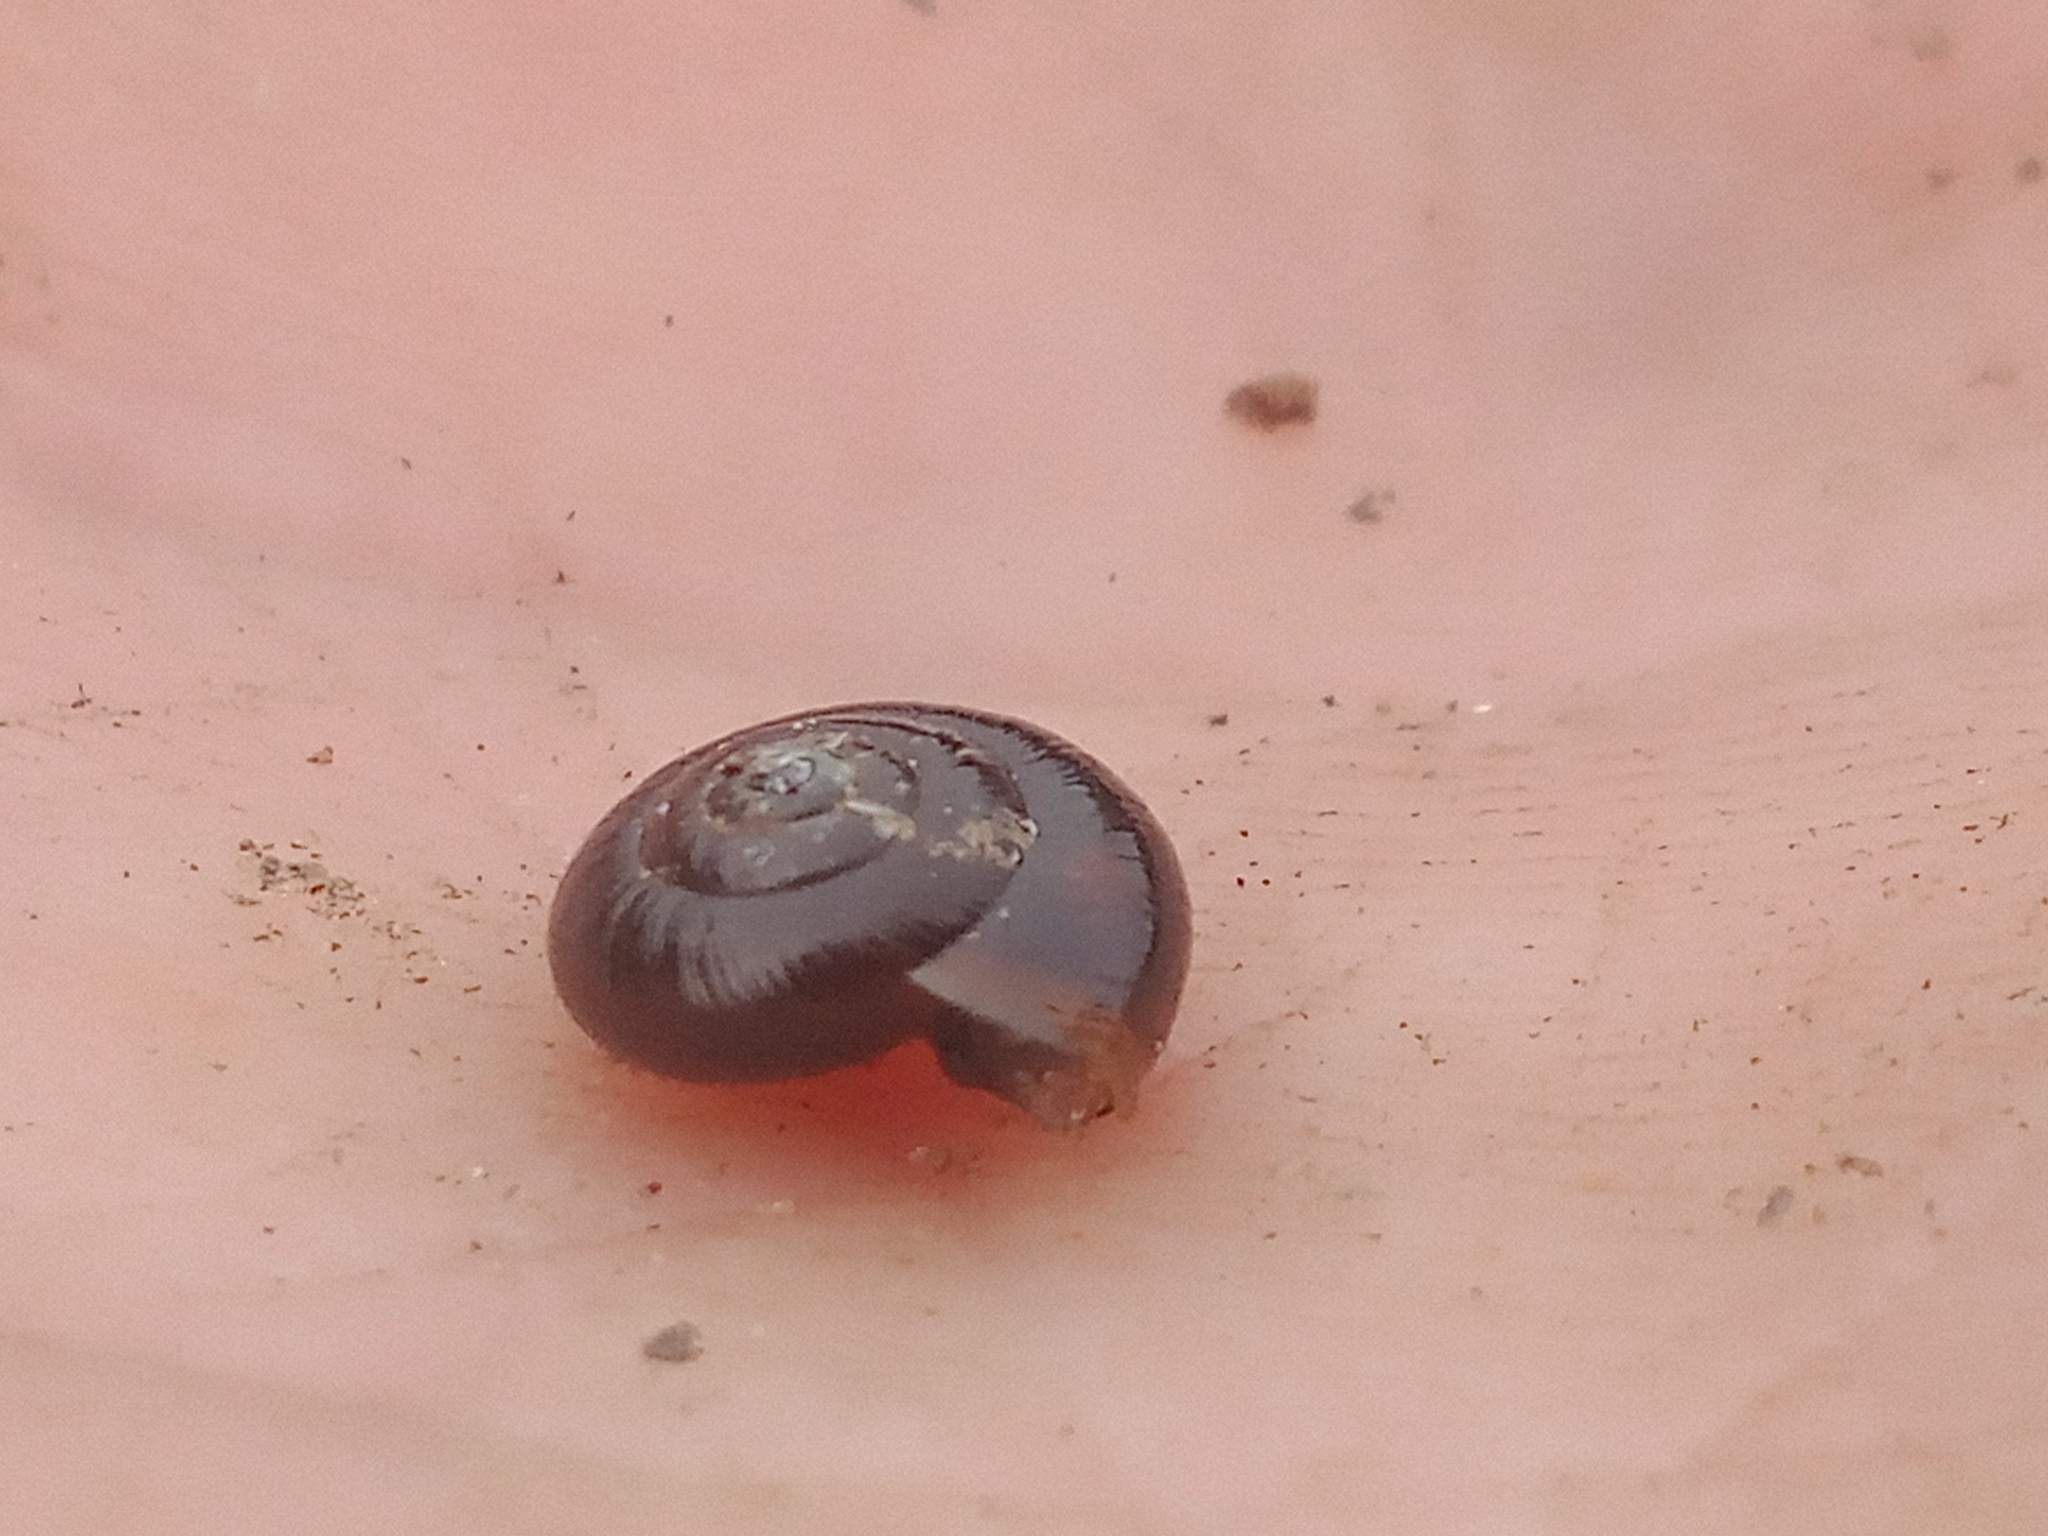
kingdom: Animalia
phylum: Mollusca
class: Gastropoda
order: Stylommatophora
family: Gastrodontidae
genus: Zonitoides
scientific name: Zonitoides nitidus
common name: Shiny glass snail
